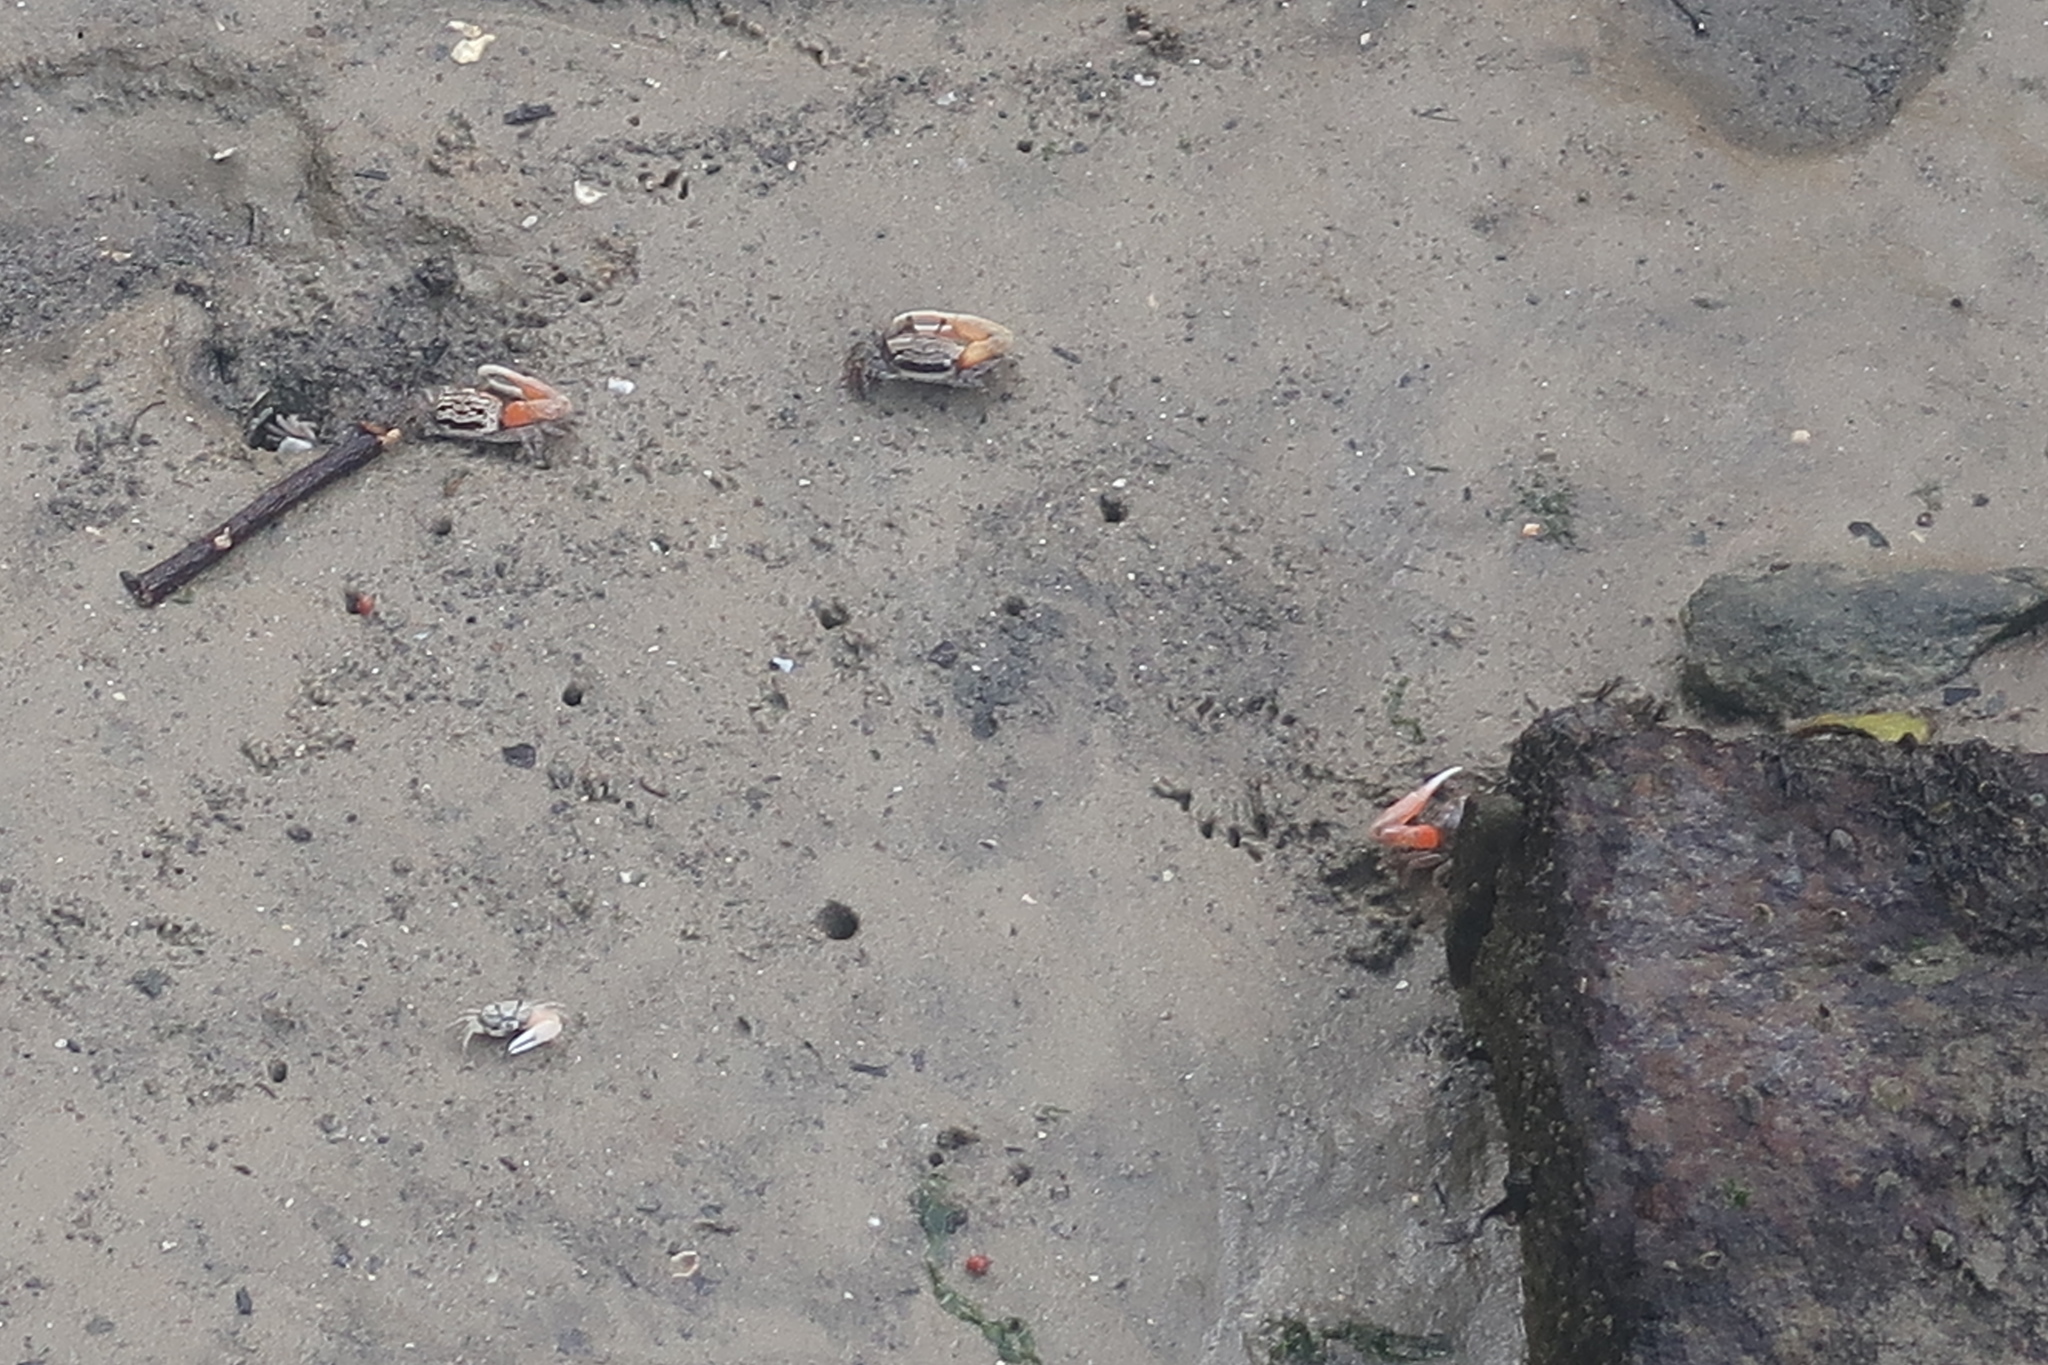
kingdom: Animalia
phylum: Arthropoda
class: Malacostraca
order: Decapoda
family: Ocypodidae
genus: Austruca
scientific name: Austruca annulipes
